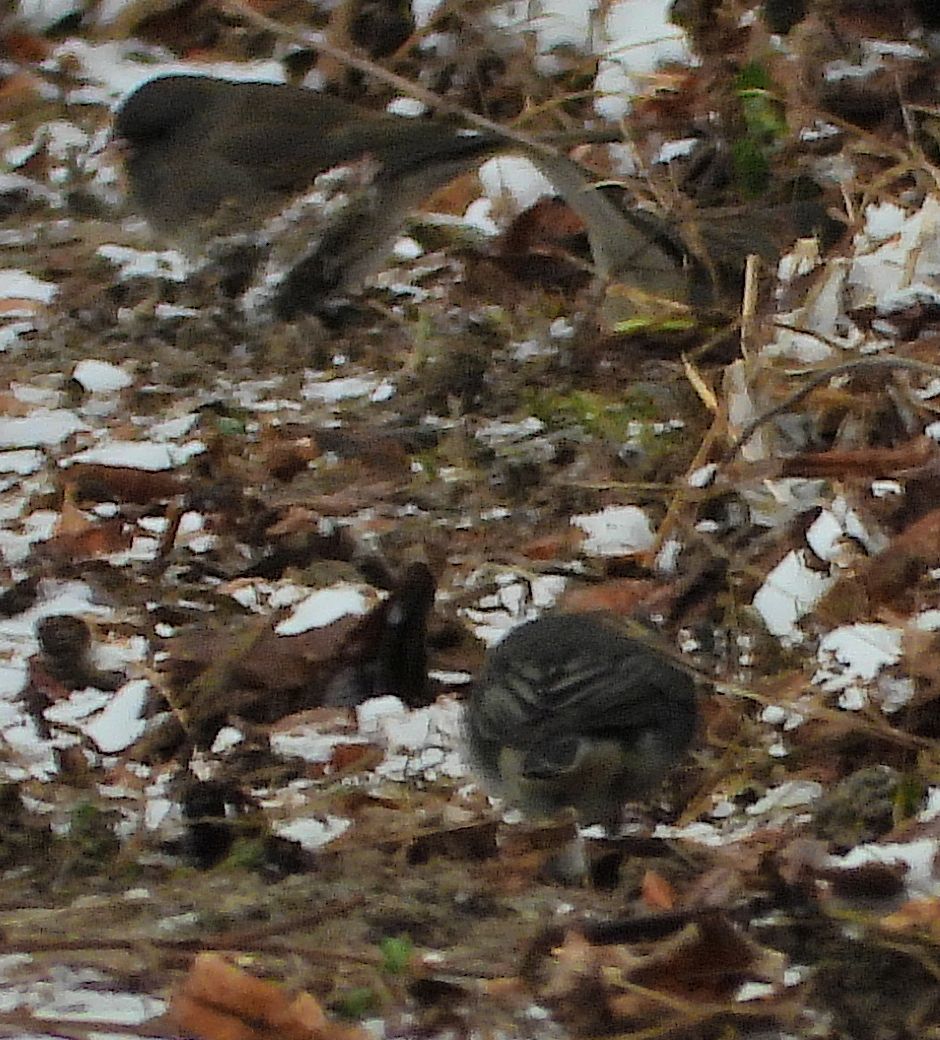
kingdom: Animalia
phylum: Chordata
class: Aves
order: Passeriformes
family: Passerellidae
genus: Junco
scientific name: Junco hyemalis
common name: Dark-eyed junco
